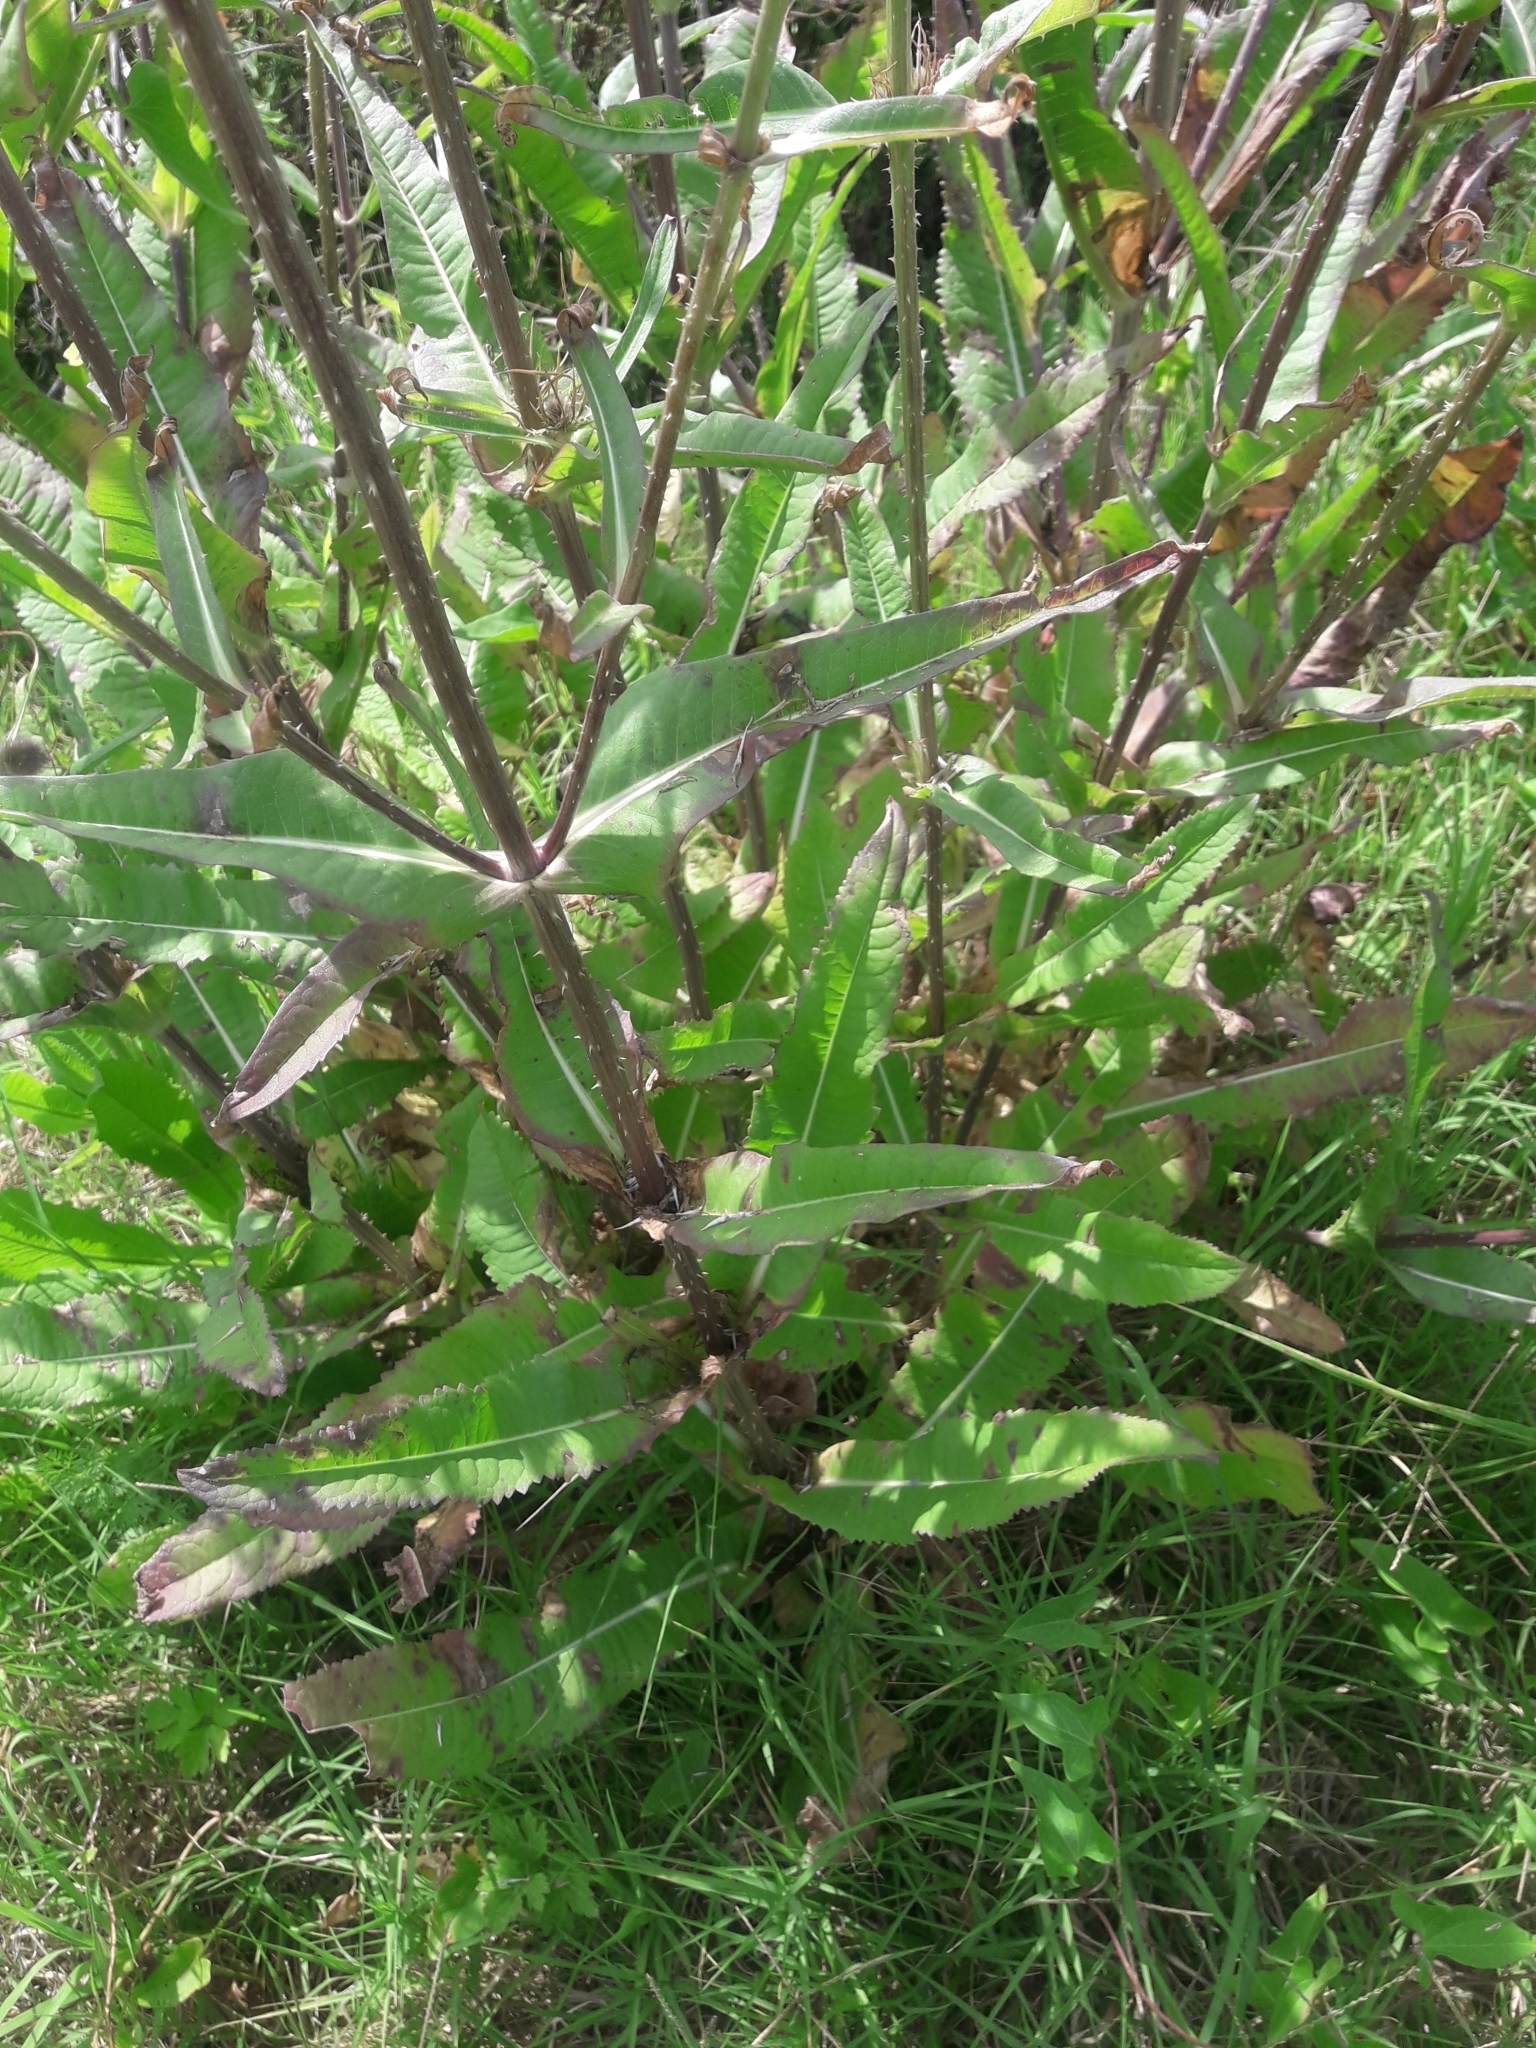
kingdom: Plantae
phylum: Tracheophyta
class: Magnoliopsida
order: Dipsacales
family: Caprifoliaceae
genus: Dipsacus
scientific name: Dipsacus fullonum
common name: Teasel
